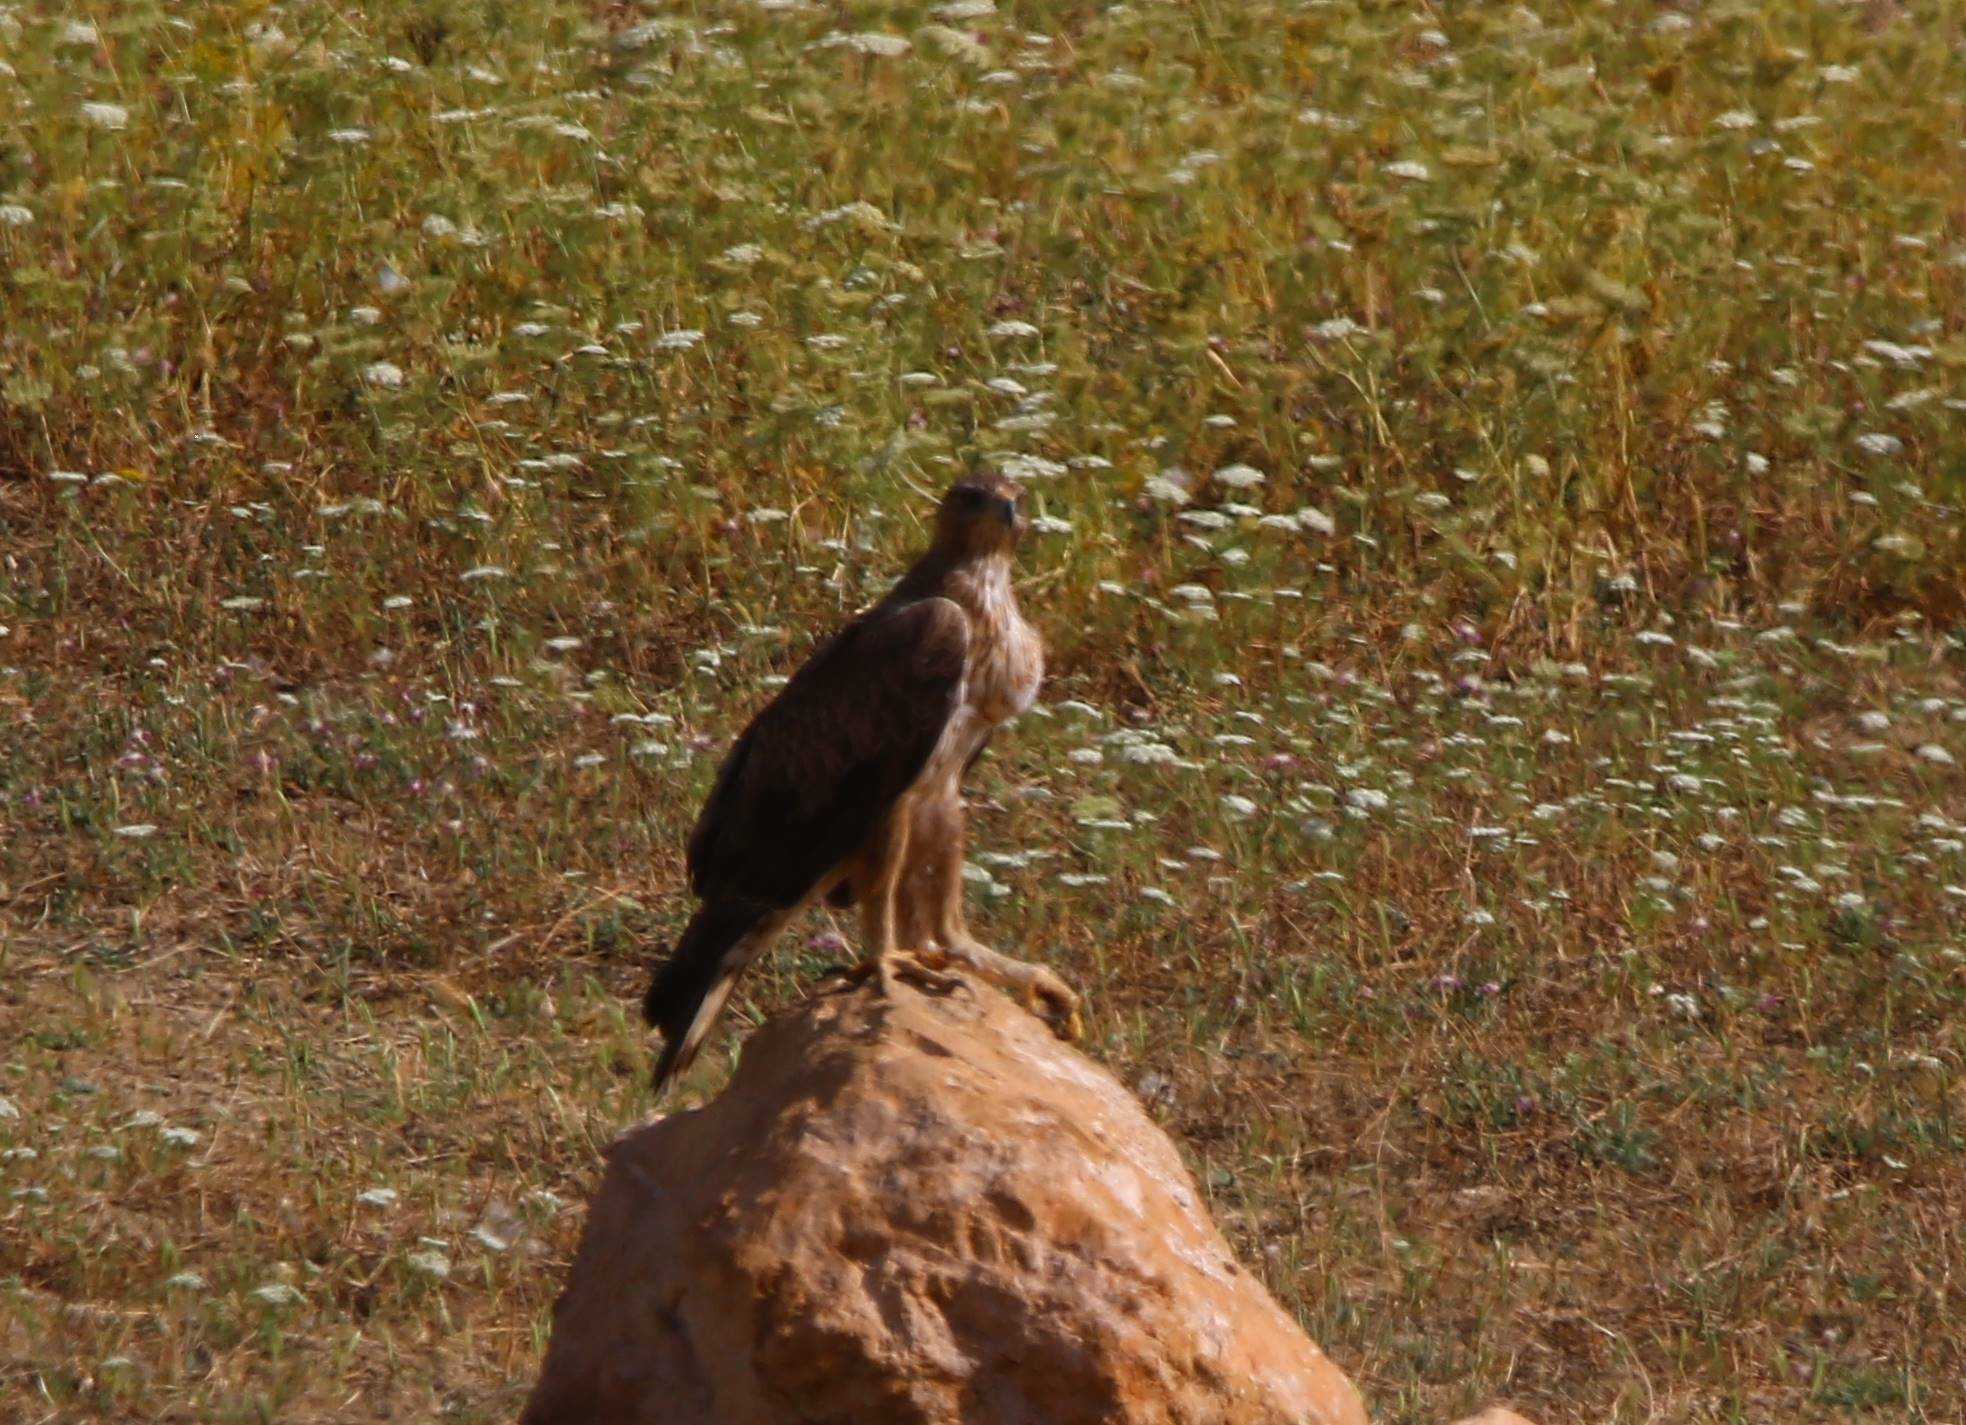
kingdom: Animalia
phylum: Chordata
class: Aves
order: Accipitriformes
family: Accipitridae
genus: Aquila
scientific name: Aquila fasciata
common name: Bonelli's eagle
